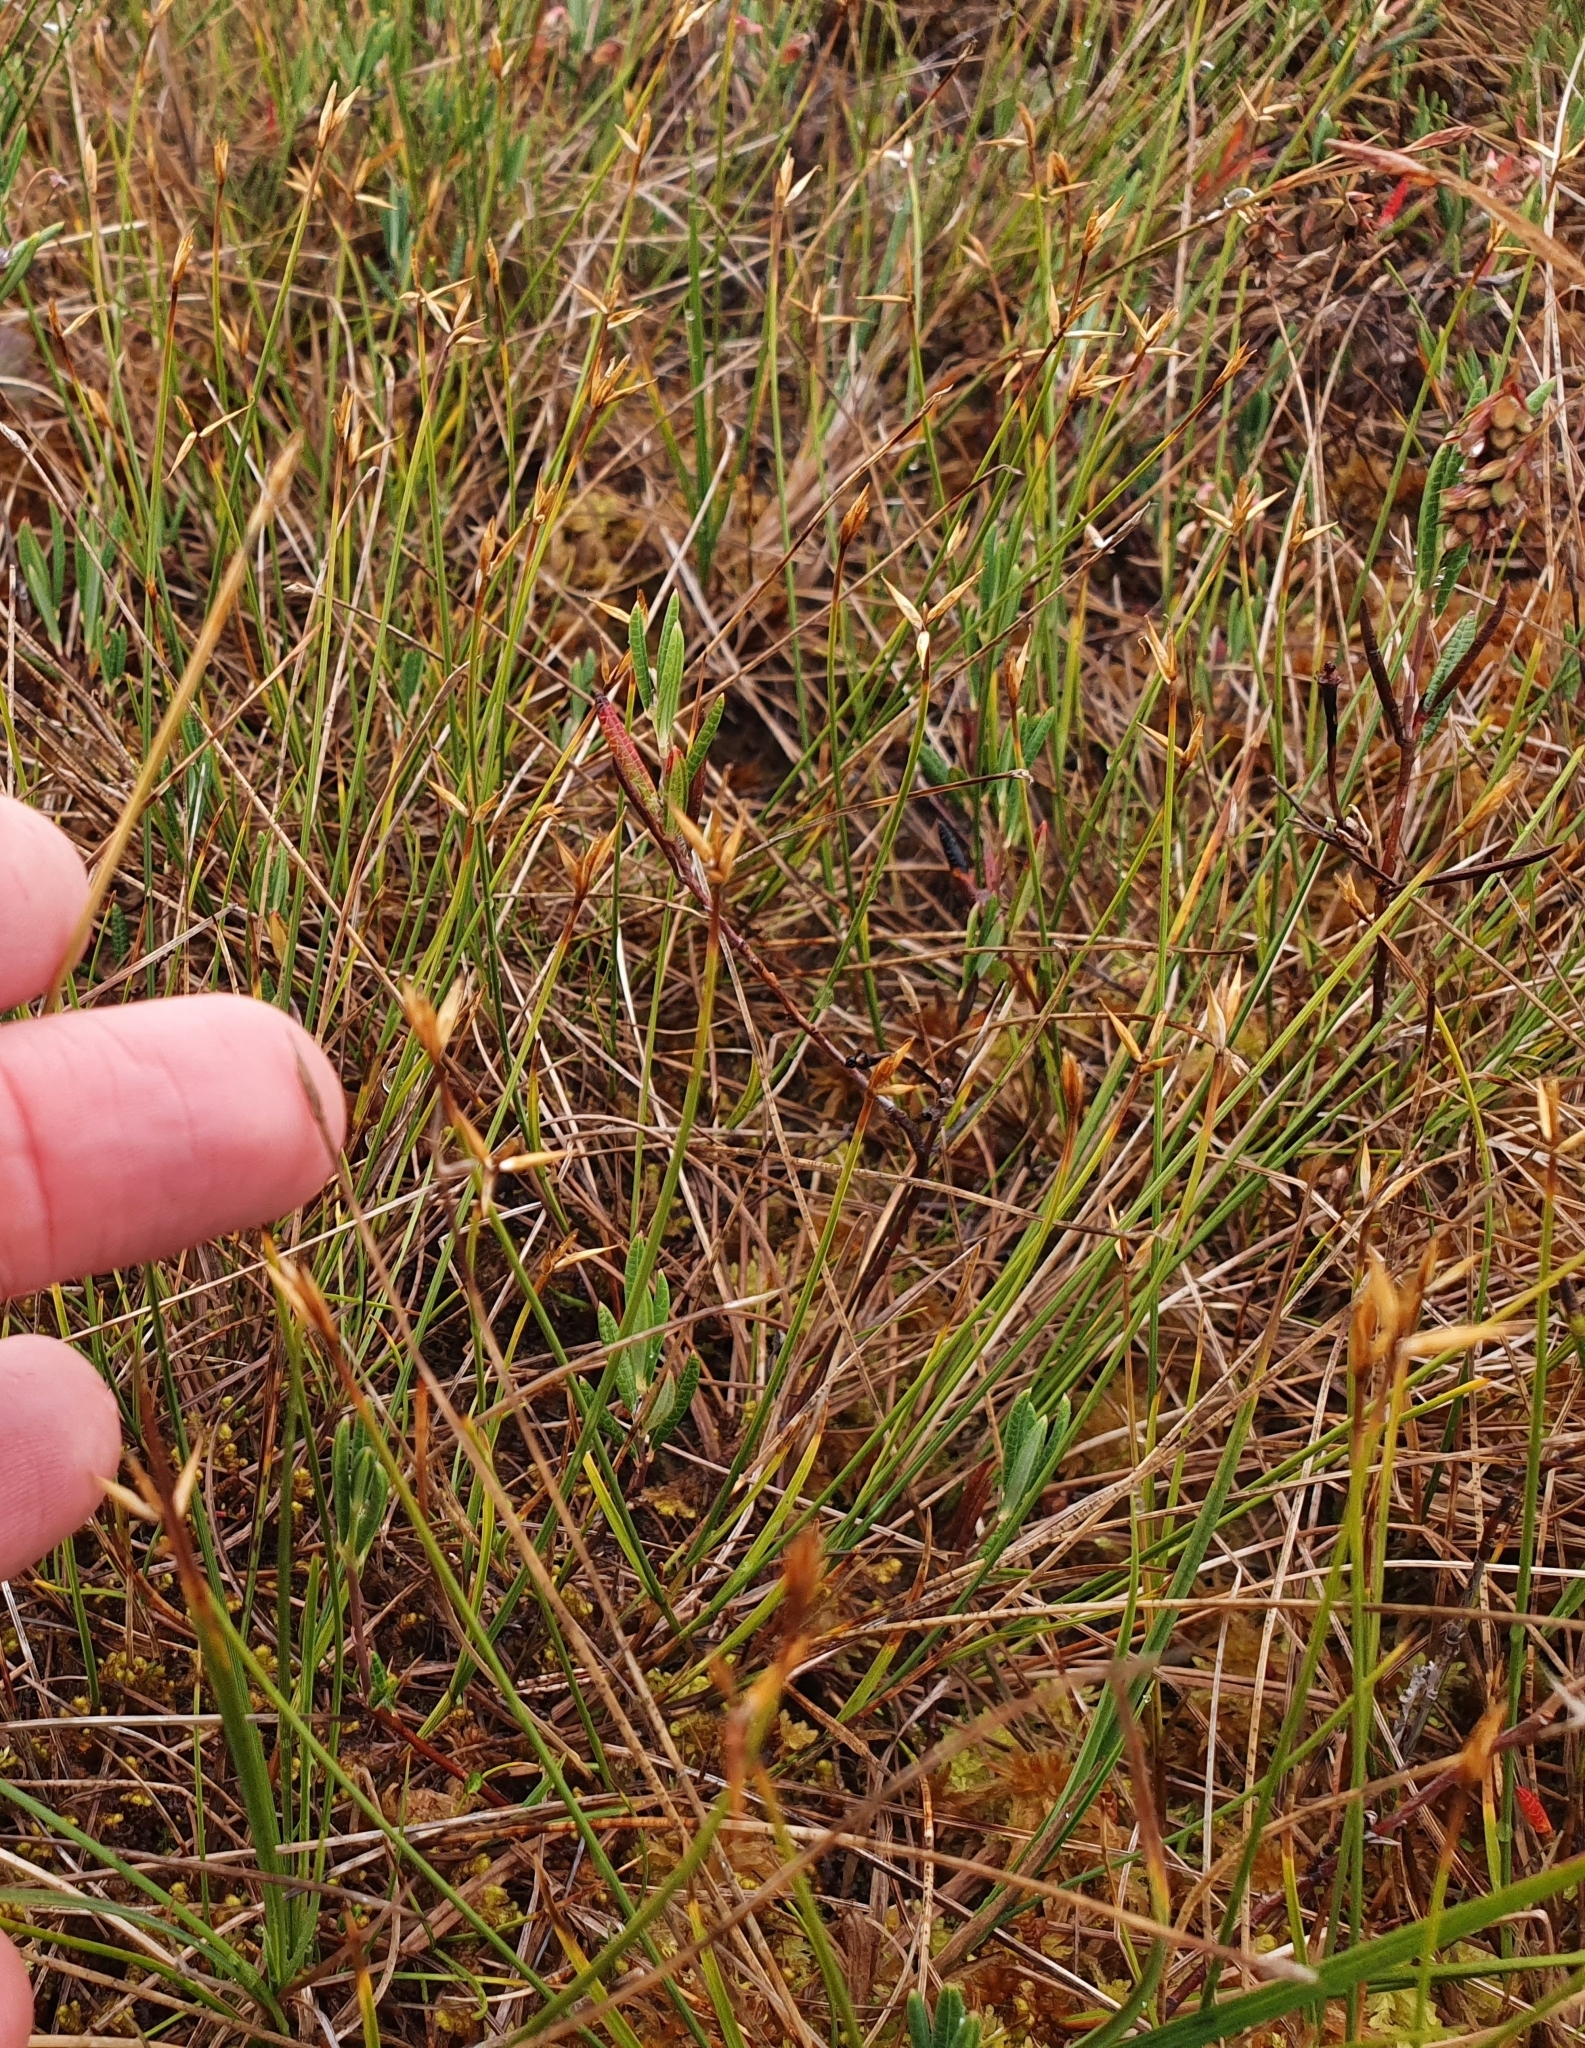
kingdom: Plantae
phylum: Tracheophyta
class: Liliopsida
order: Poales
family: Cyperaceae
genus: Carex
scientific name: Carex pauciflora
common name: Few-flowered sedge
